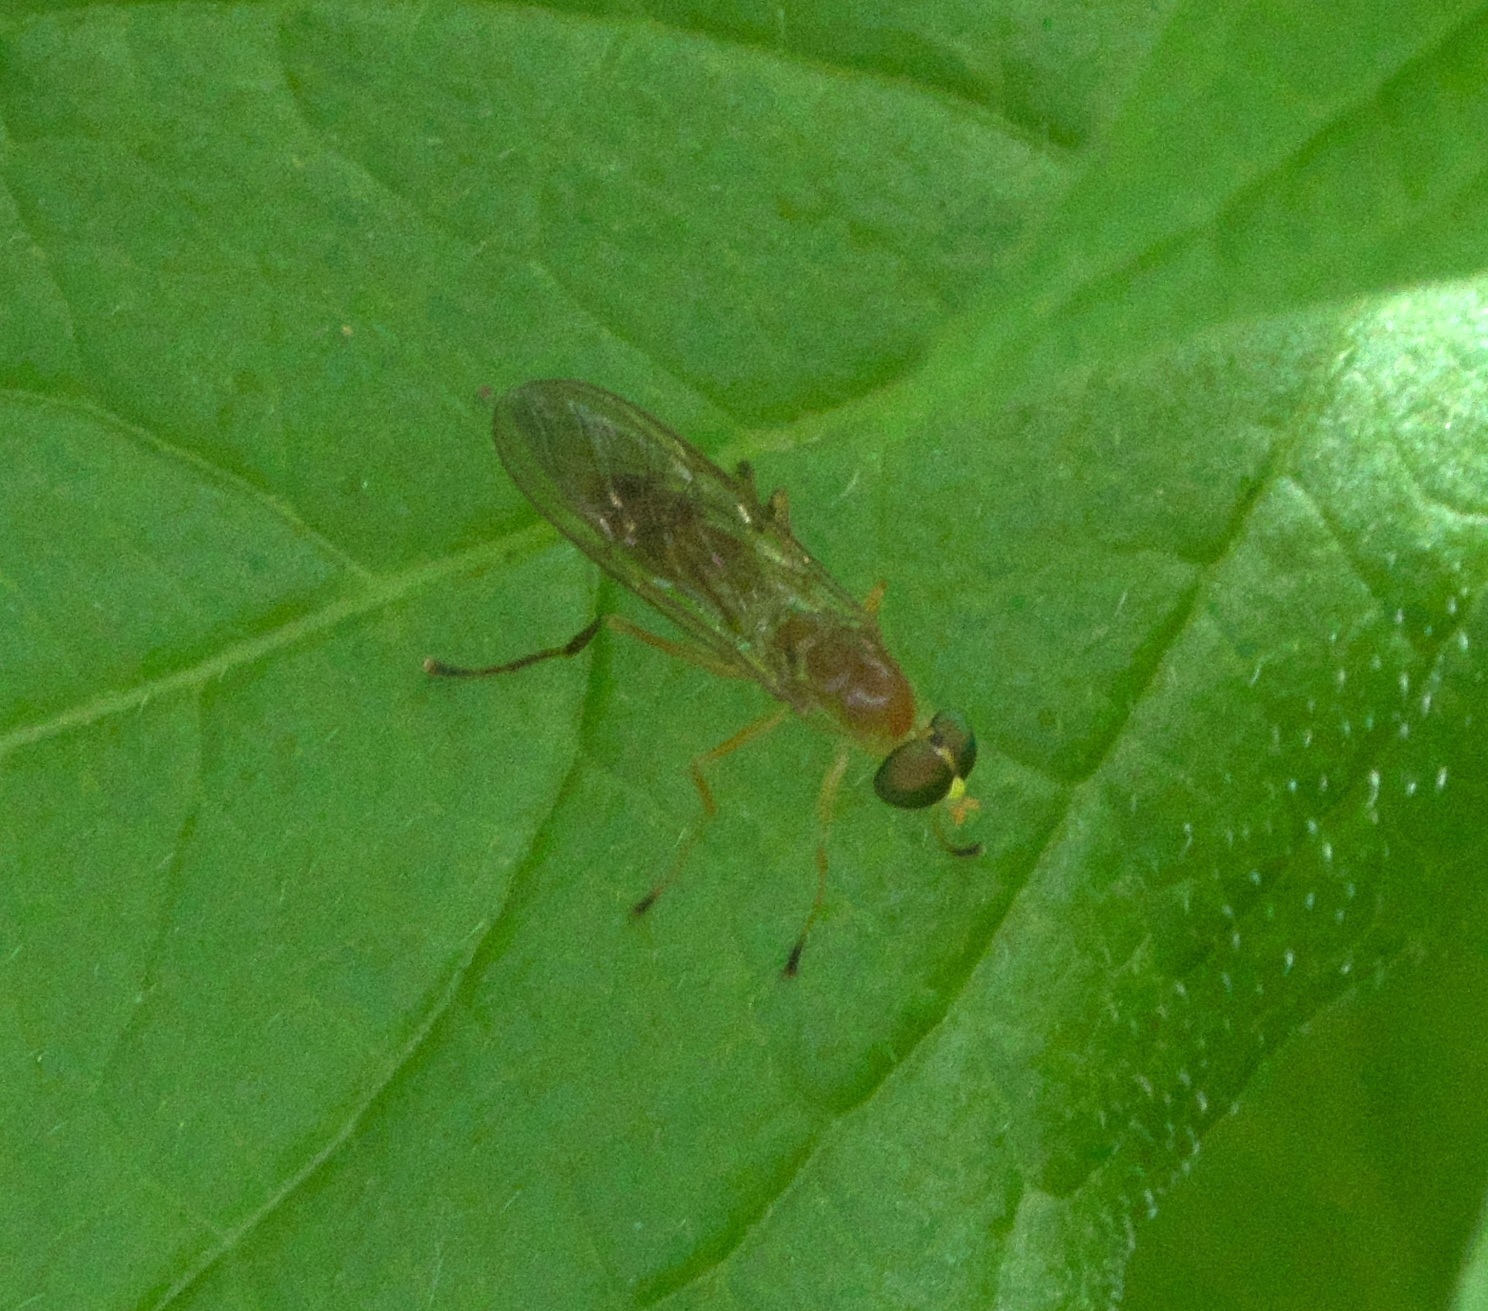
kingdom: Animalia
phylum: Arthropoda
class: Insecta
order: Diptera
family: Stratiomyidae
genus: Ptecticus
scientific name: Ptecticus trivittatus
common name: Compost fly
